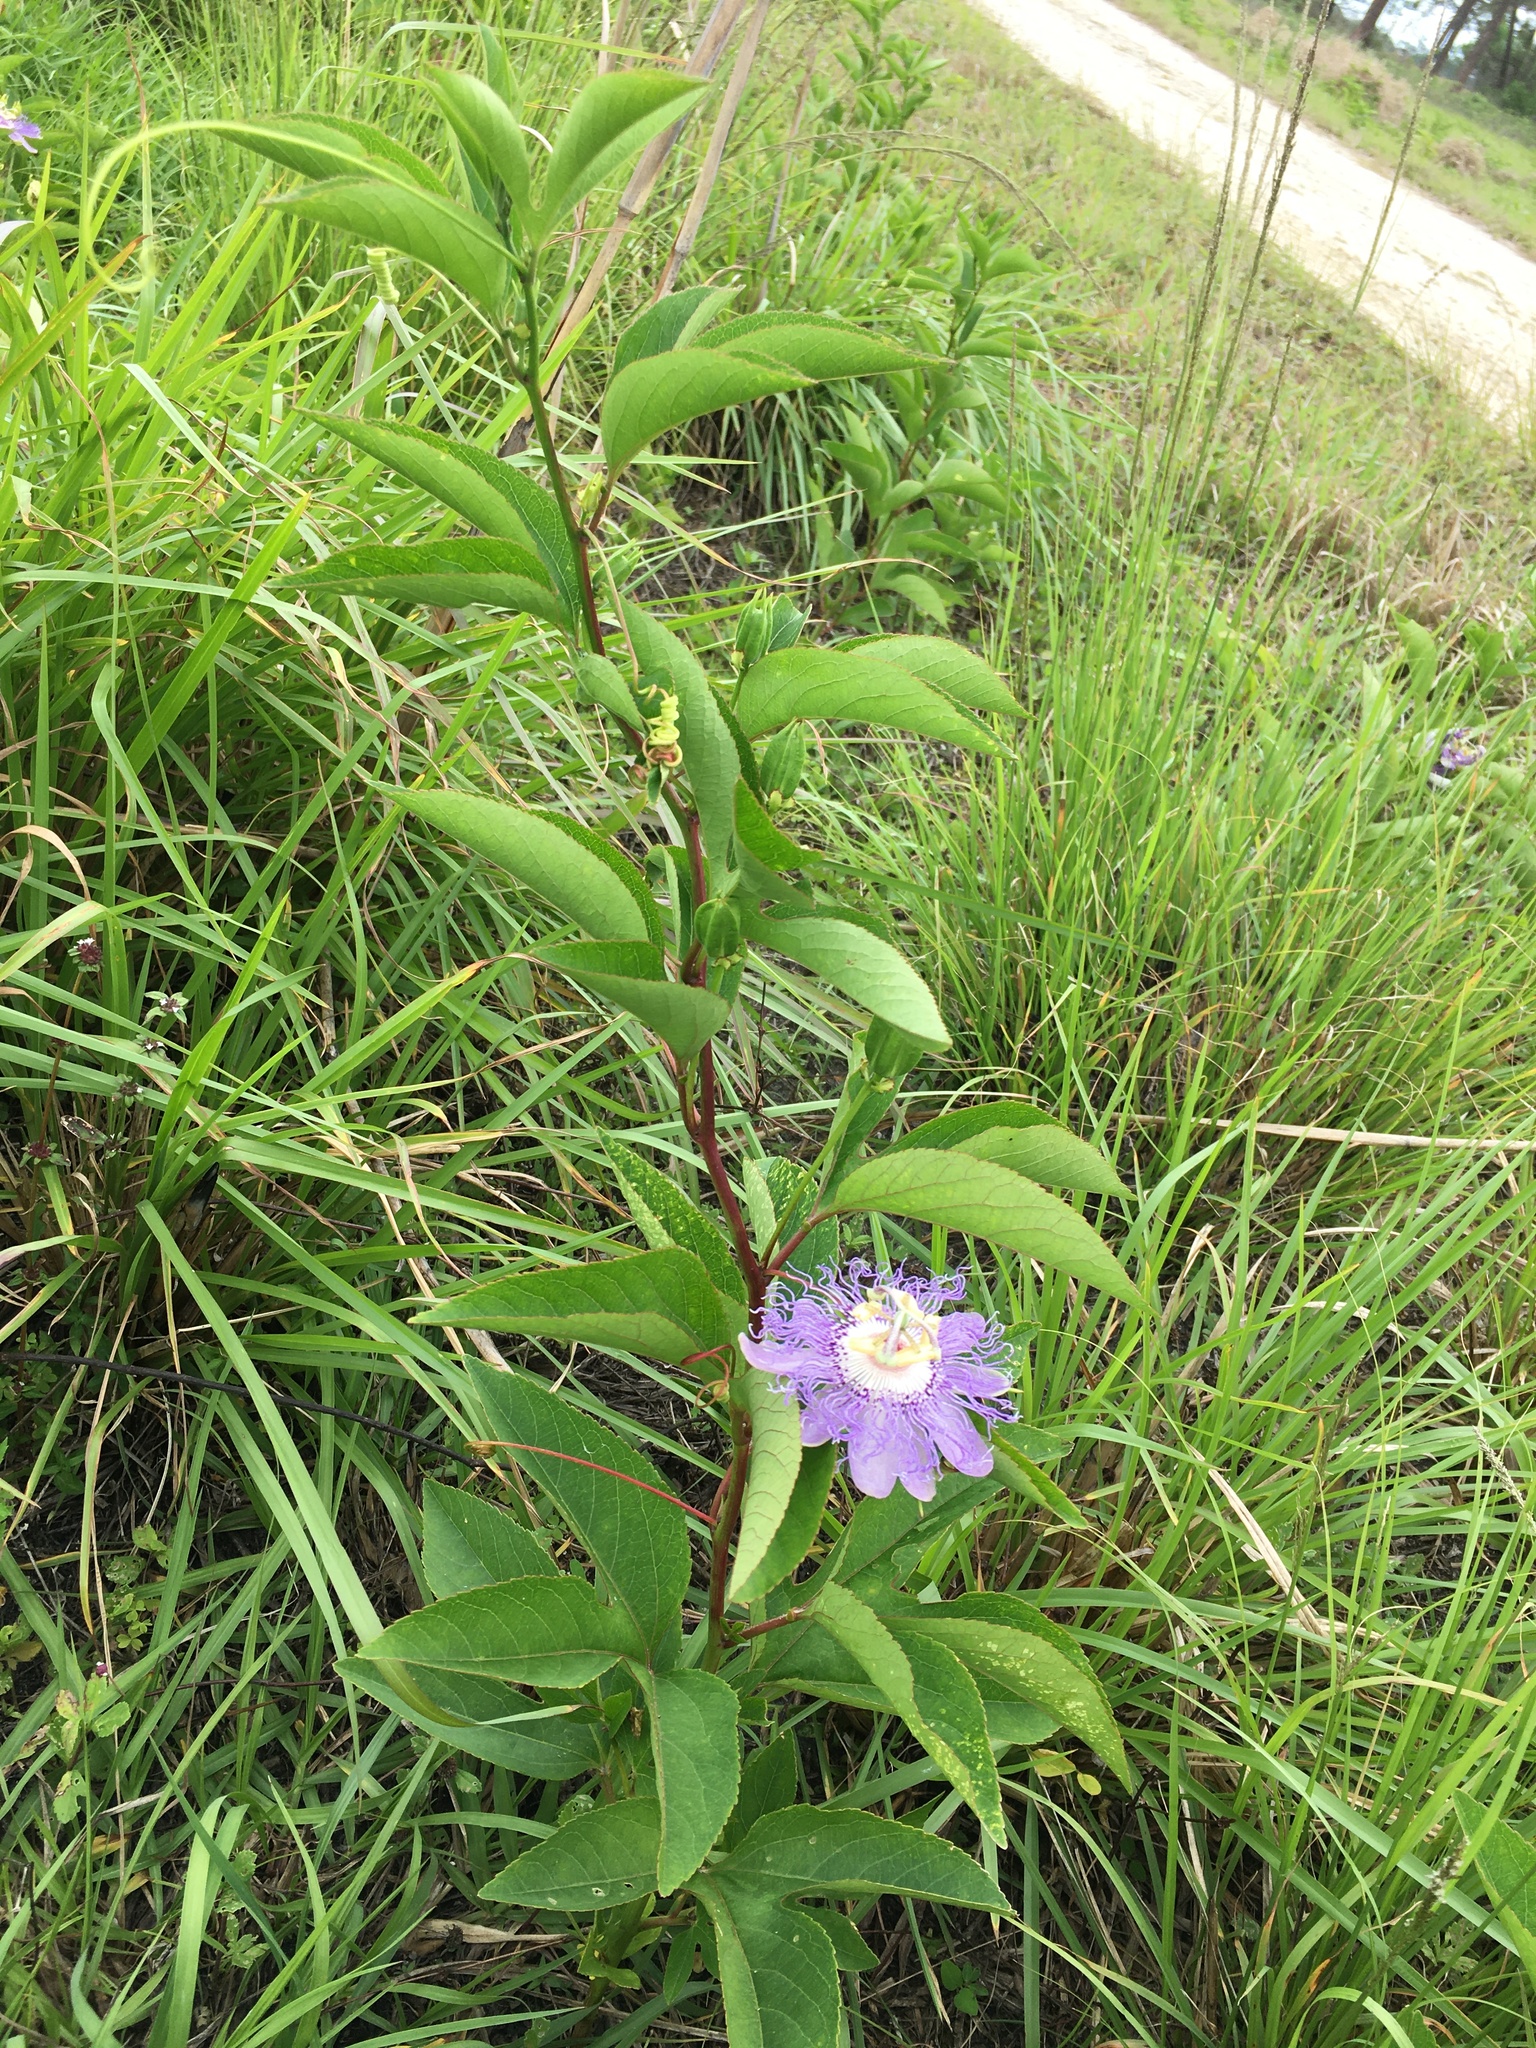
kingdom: Plantae
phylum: Tracheophyta
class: Magnoliopsida
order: Malpighiales
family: Passifloraceae
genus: Passiflora
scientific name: Passiflora incarnata
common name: Apricot-vine
